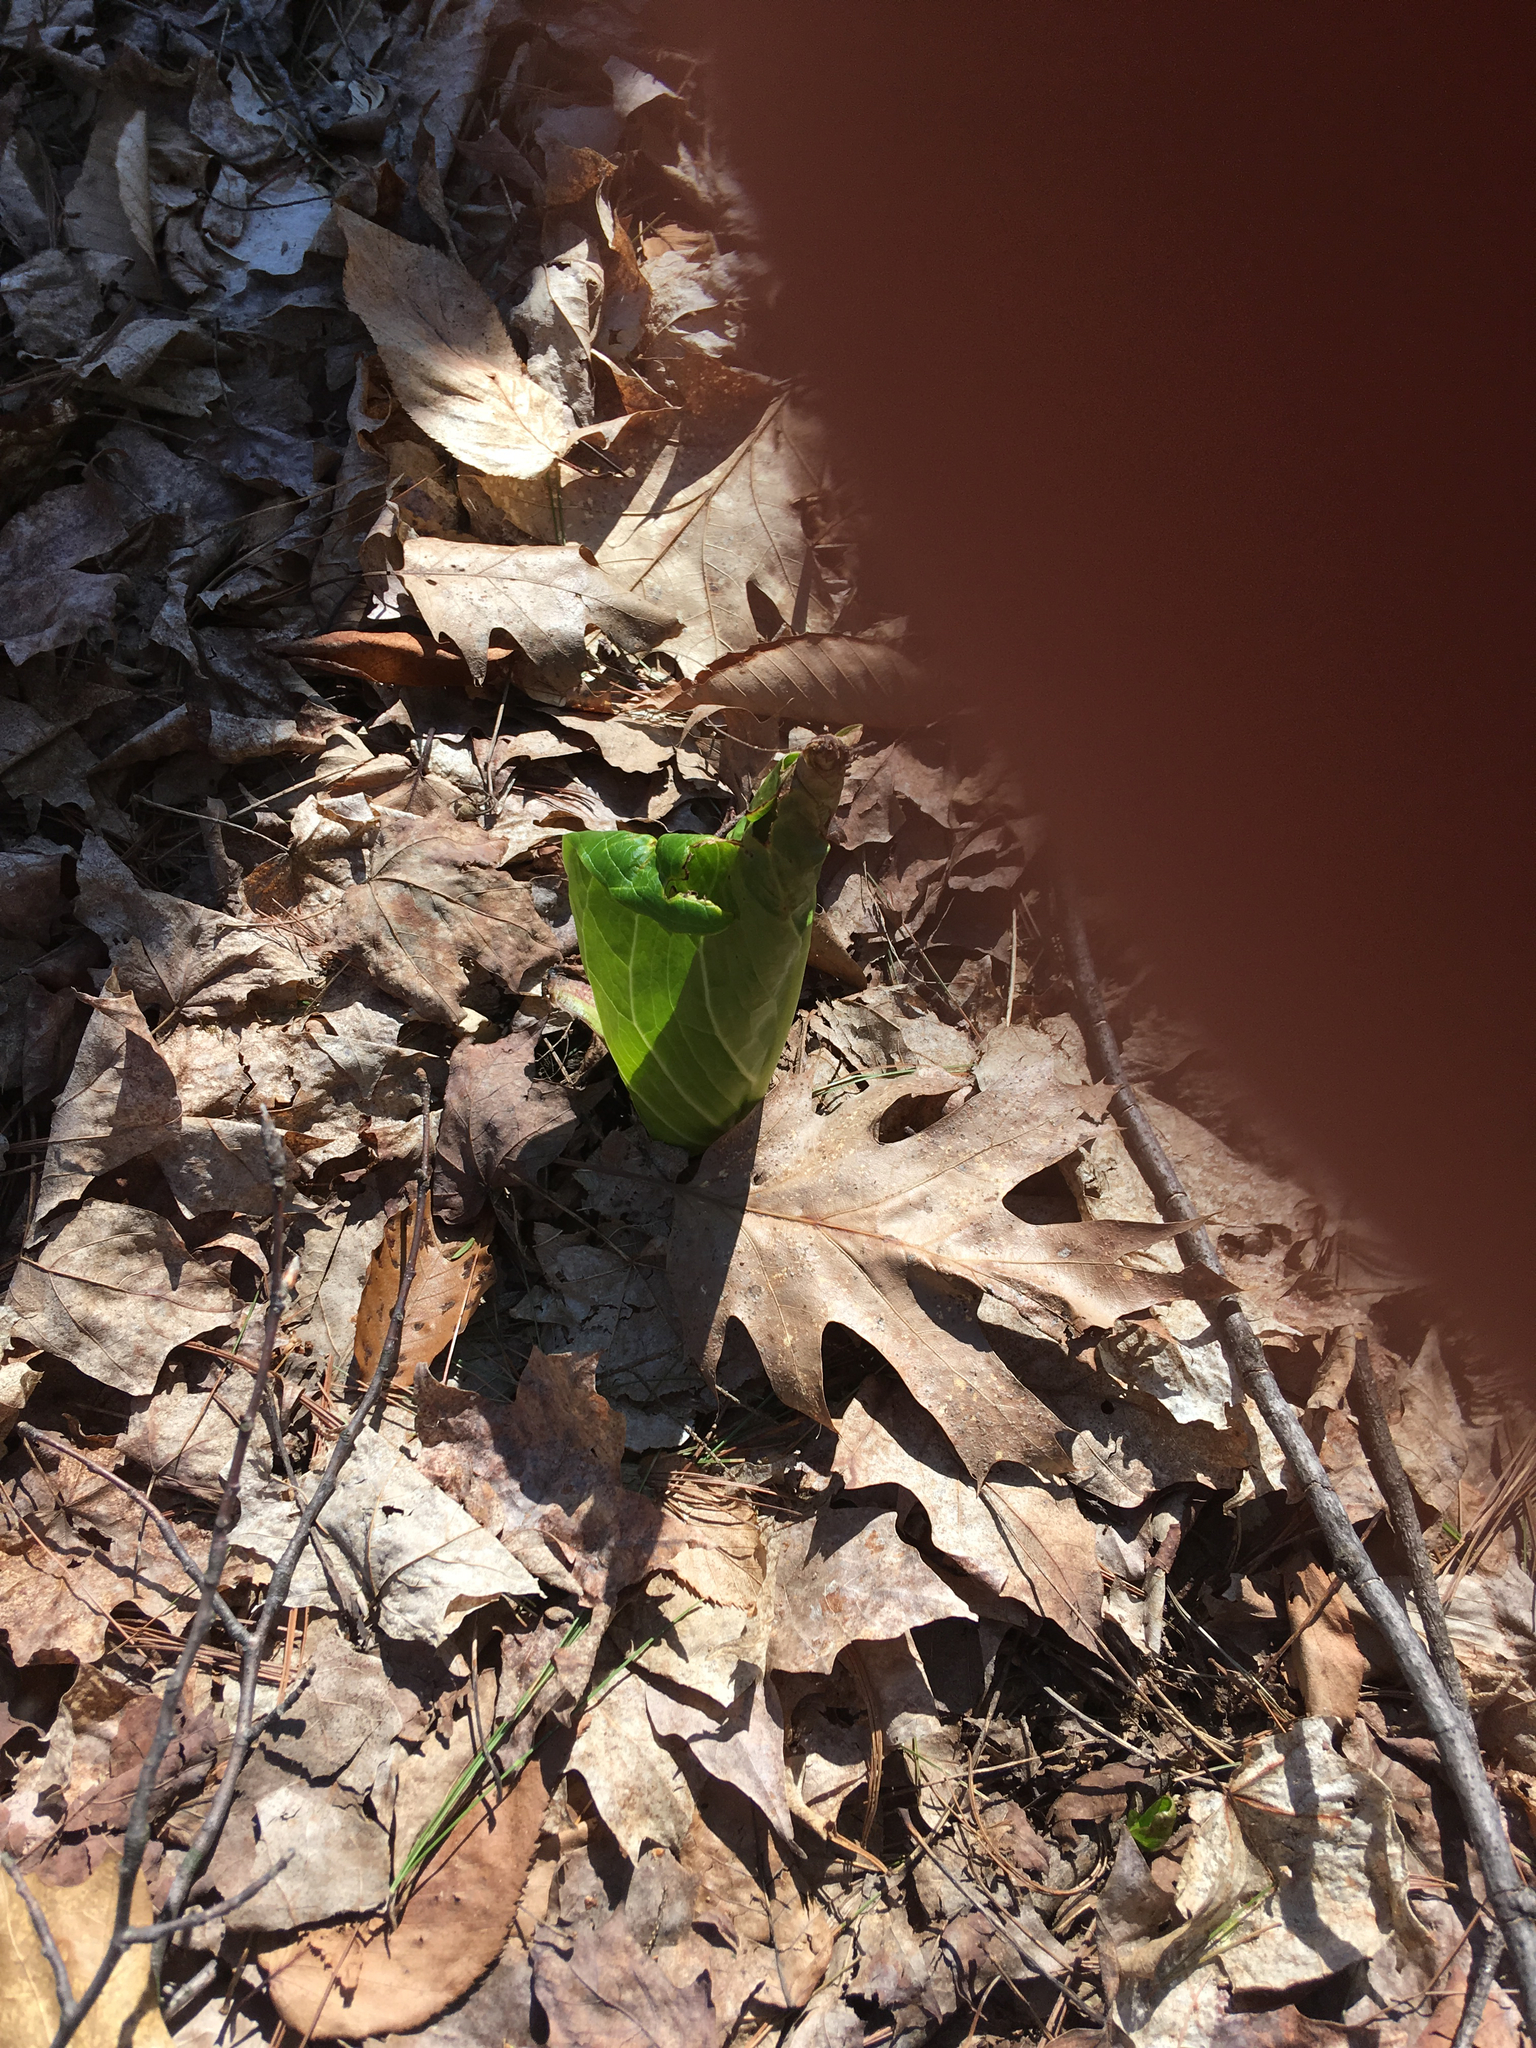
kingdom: Plantae
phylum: Tracheophyta
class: Liliopsida
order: Alismatales
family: Araceae
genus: Symplocarpus
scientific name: Symplocarpus foetidus
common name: Eastern skunk cabbage
